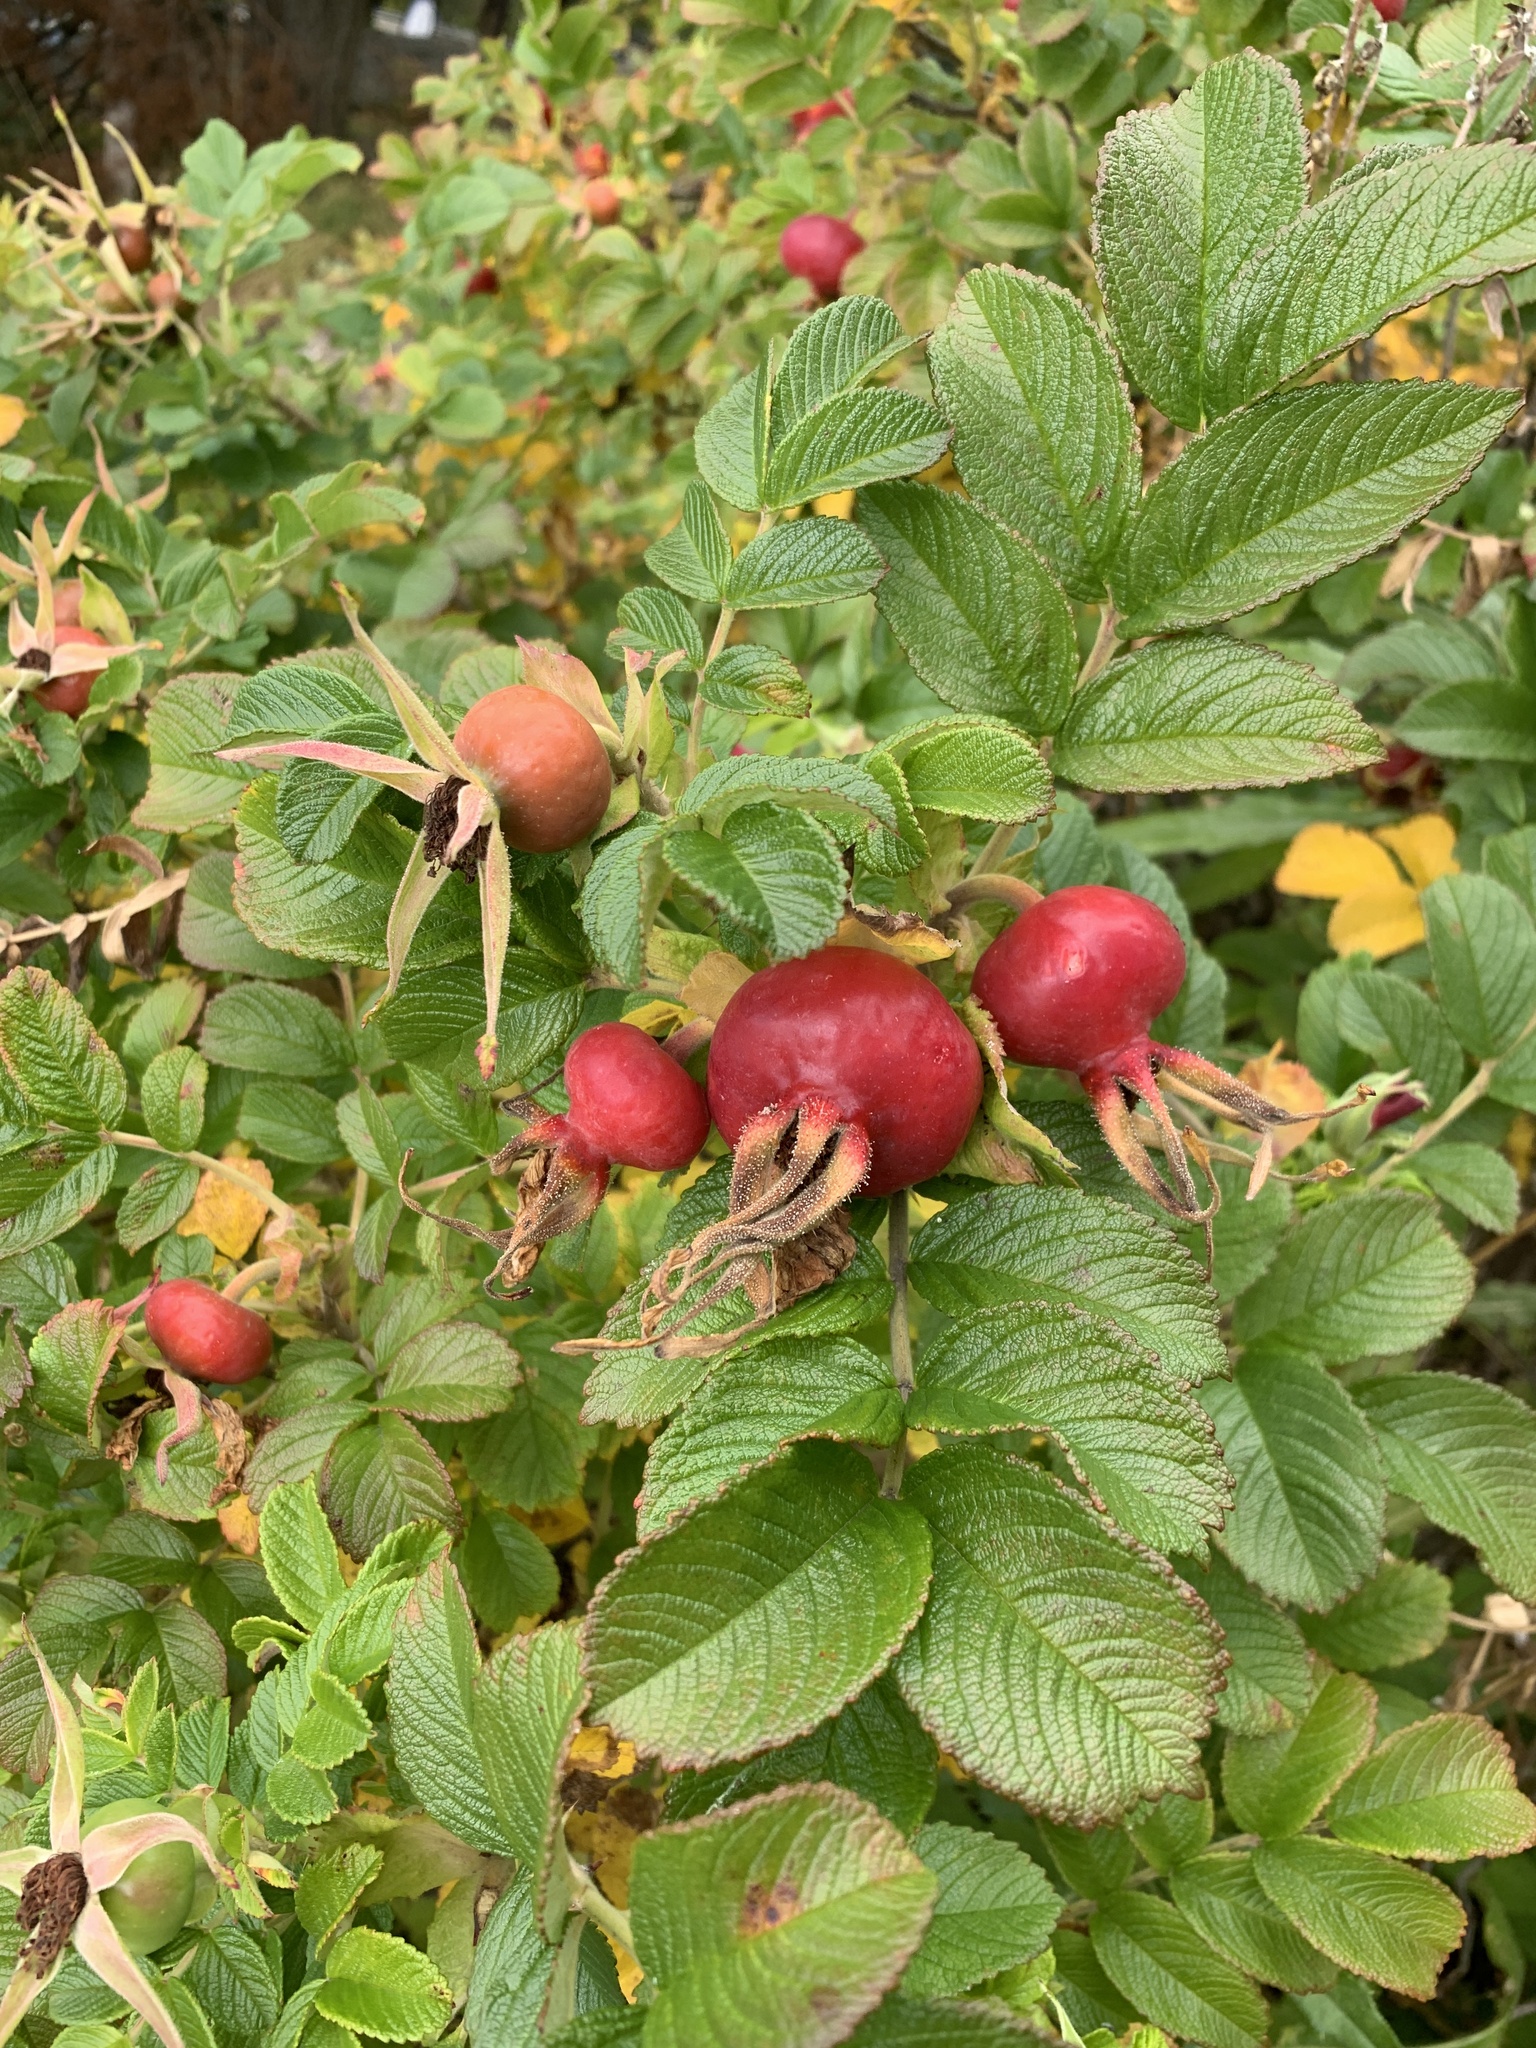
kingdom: Plantae
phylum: Tracheophyta
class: Magnoliopsida
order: Rosales
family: Rosaceae
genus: Rosa
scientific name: Rosa rugosa
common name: Japanese rose
